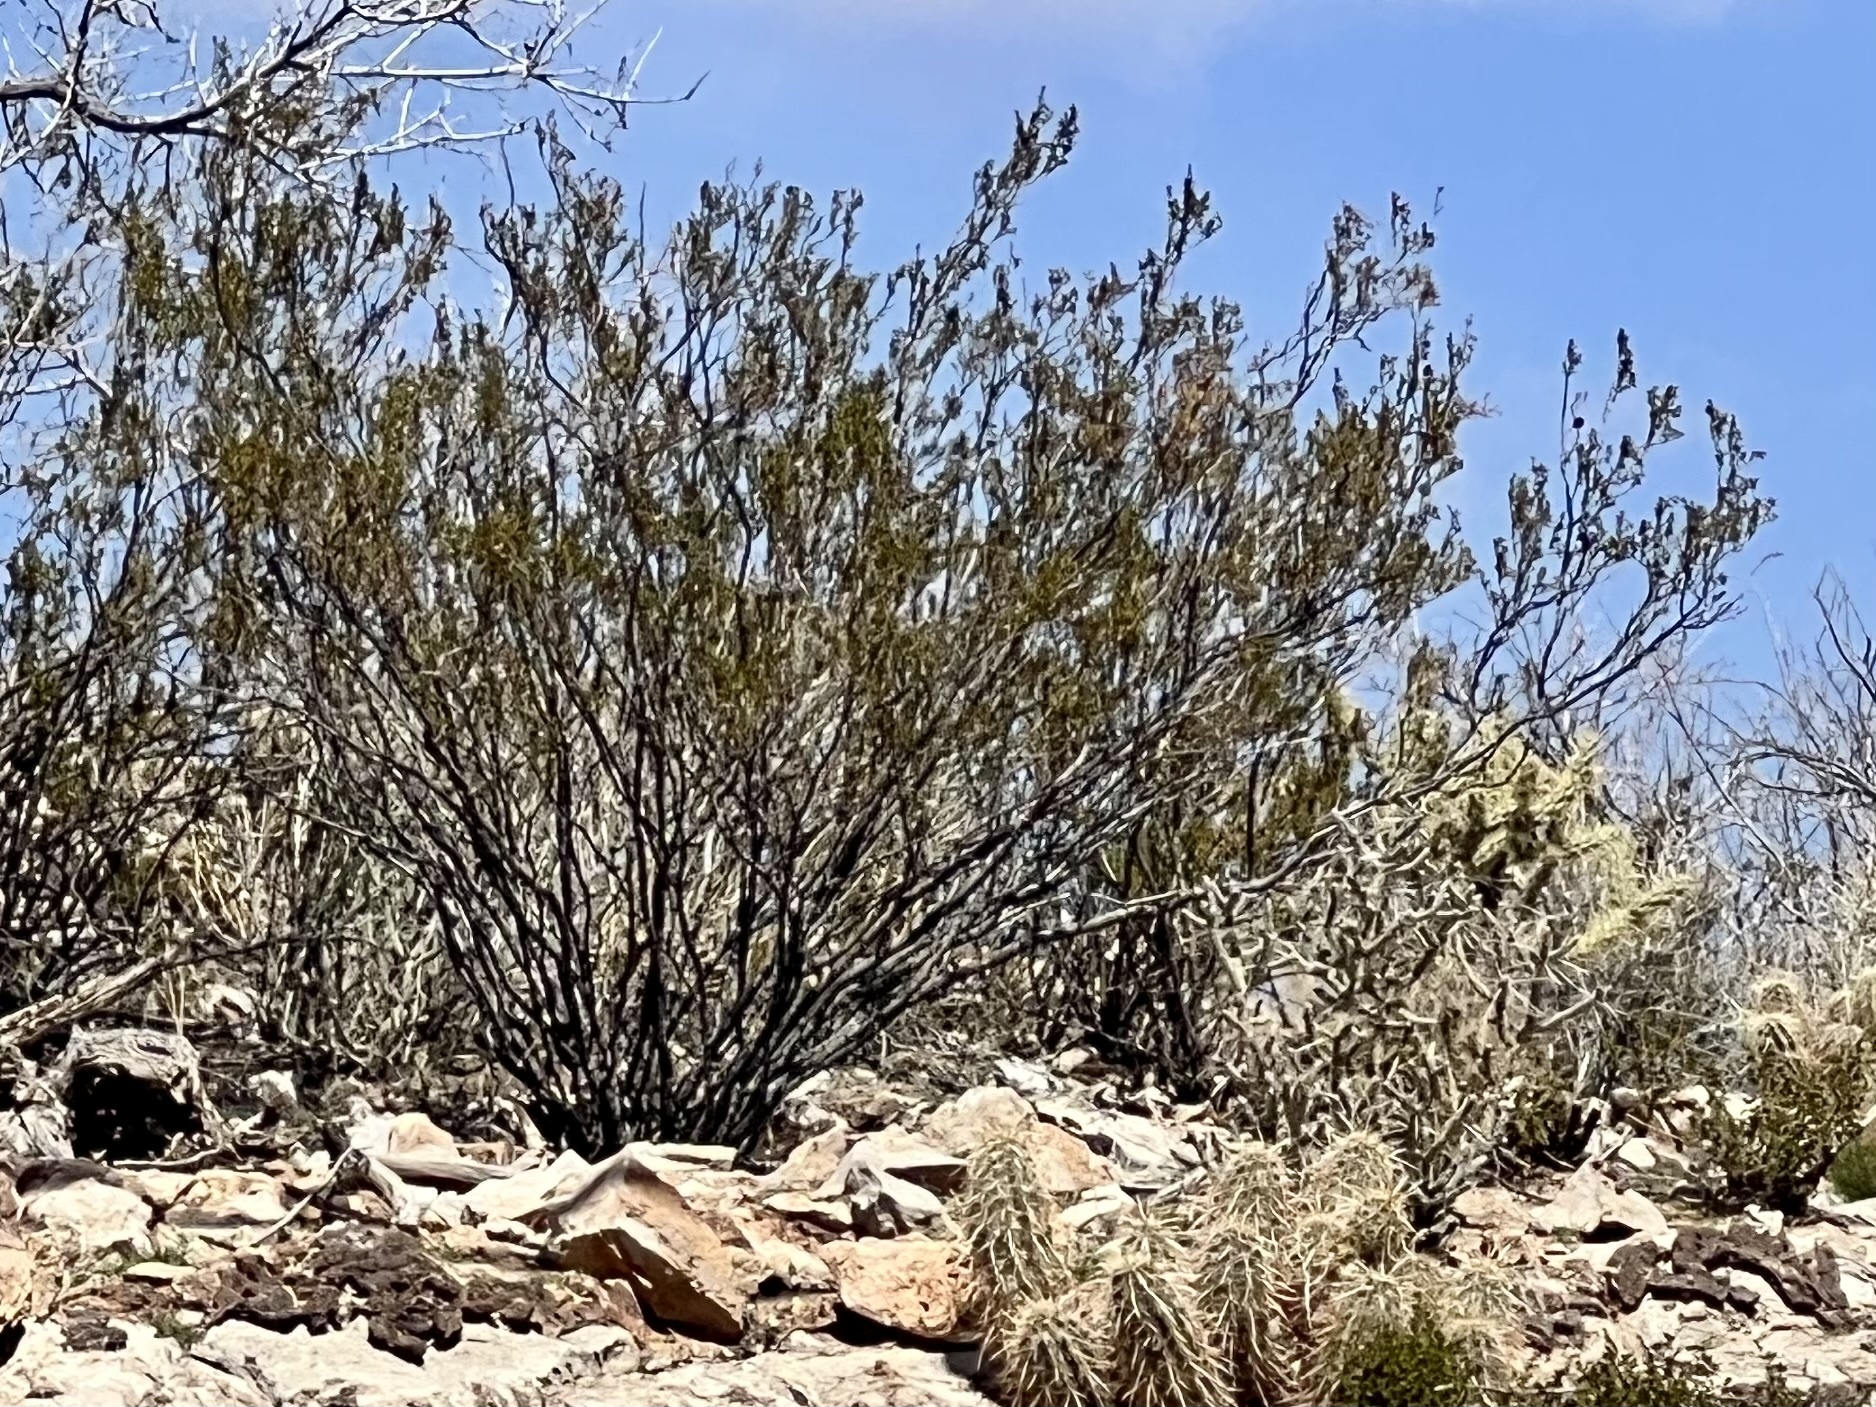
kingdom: Plantae
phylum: Tracheophyta
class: Magnoliopsida
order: Zygophyllales
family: Zygophyllaceae
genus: Larrea
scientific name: Larrea tridentata
